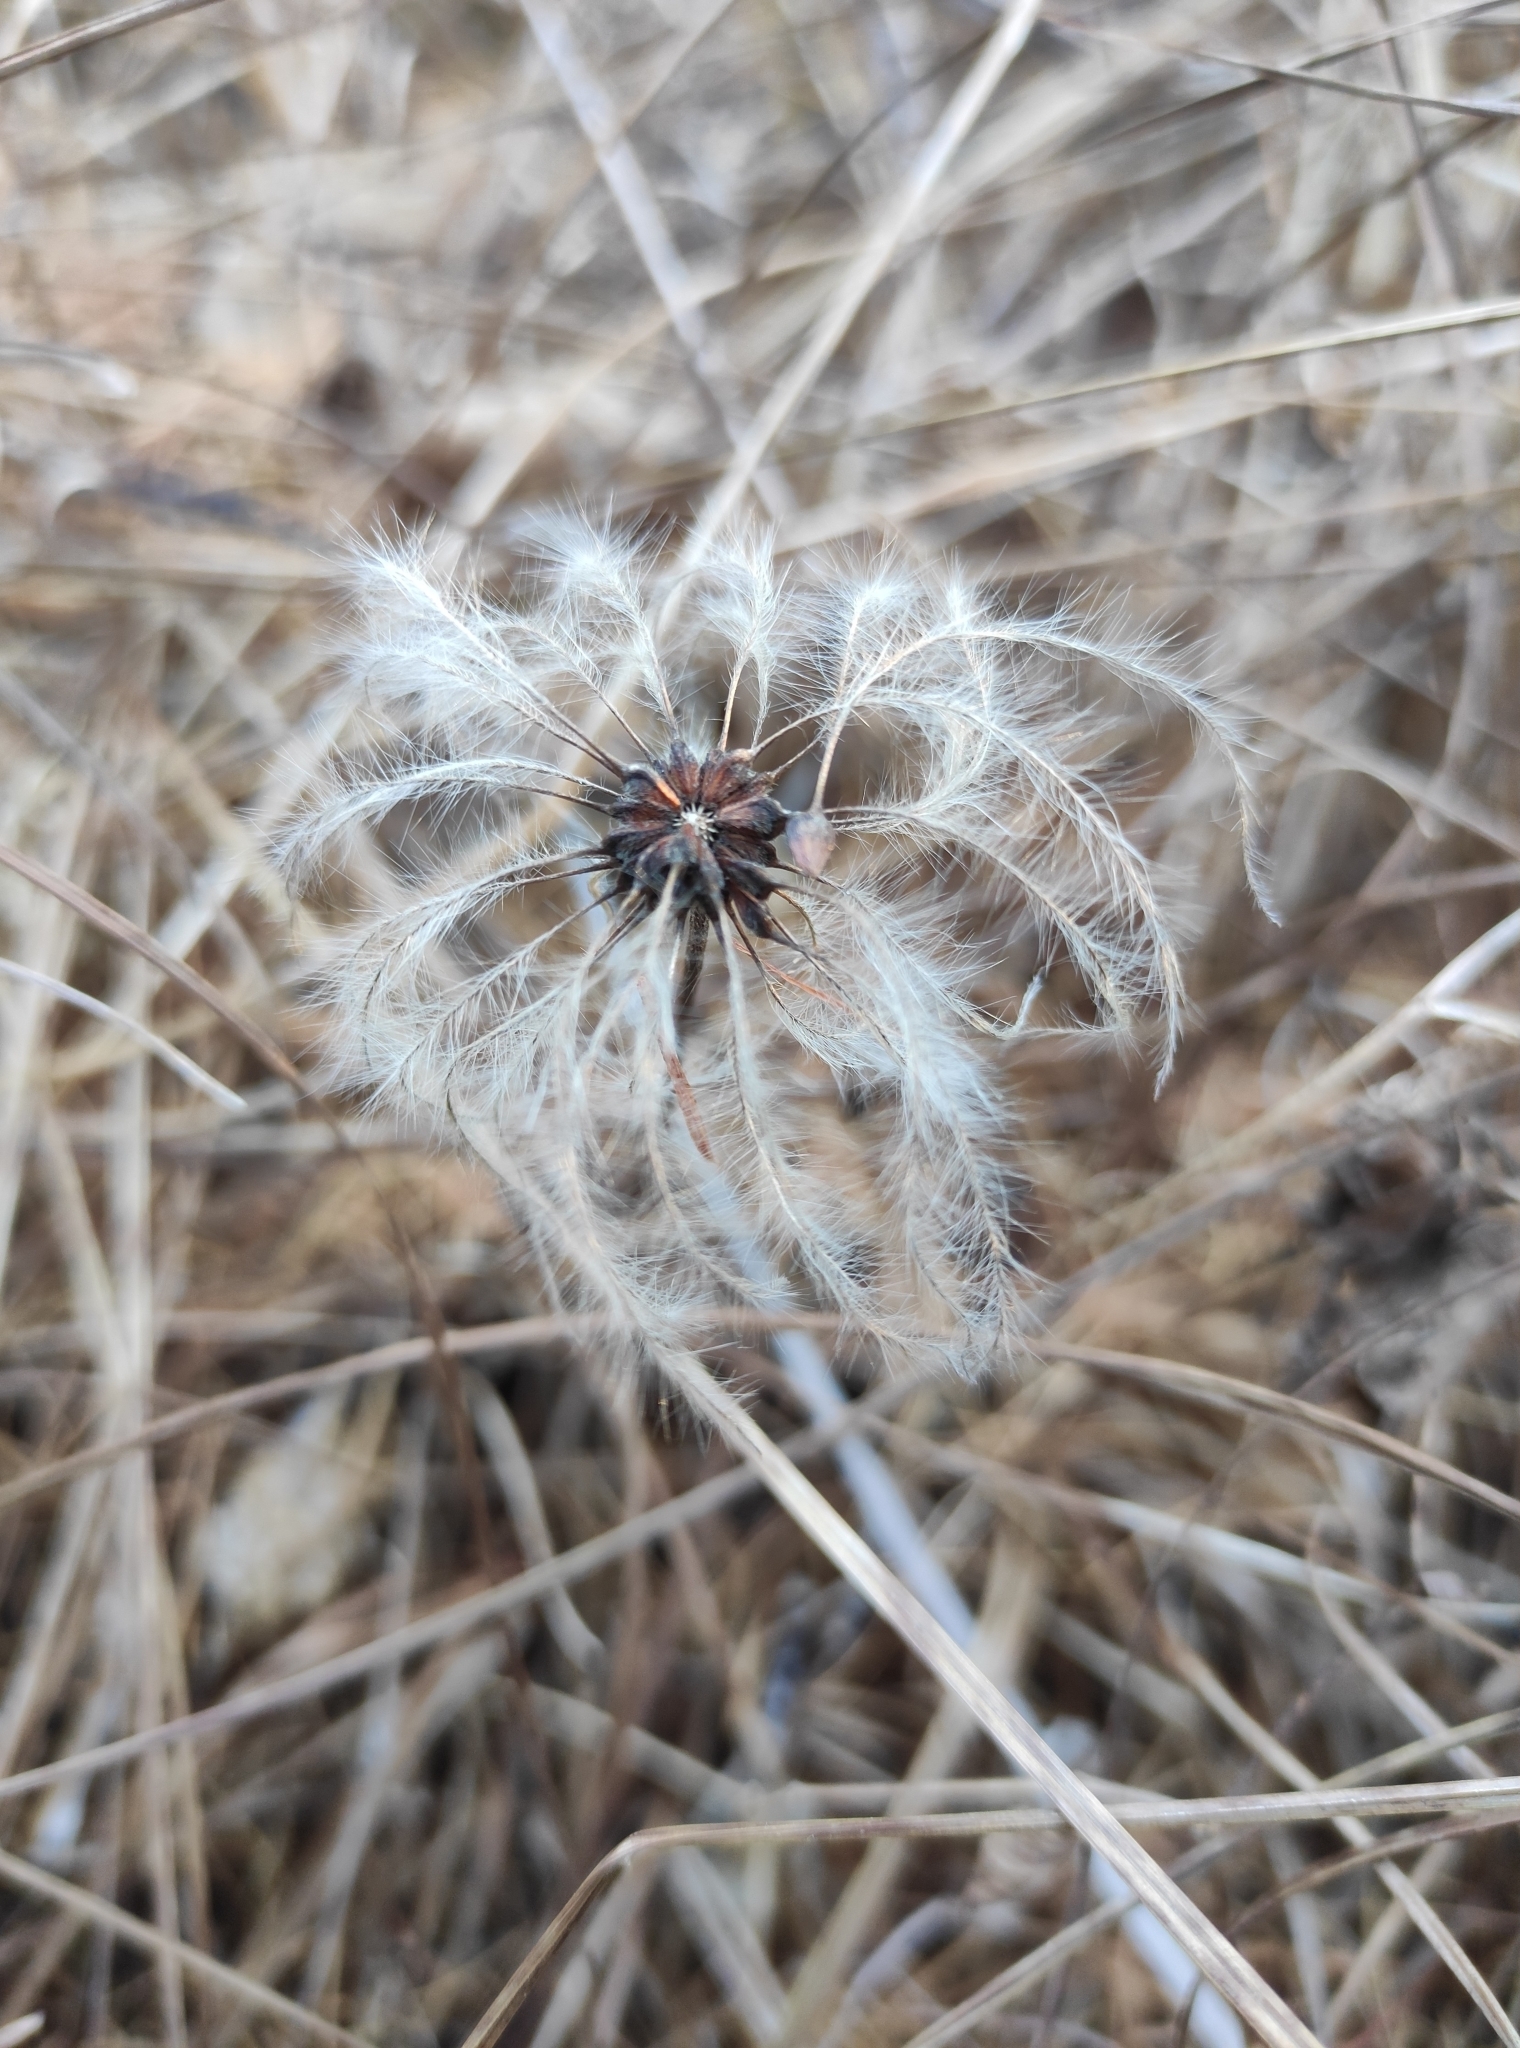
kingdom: Plantae
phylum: Tracheophyta
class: Magnoliopsida
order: Ranunculales
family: Ranunculaceae
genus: Clematis
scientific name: Clematis sibirica
